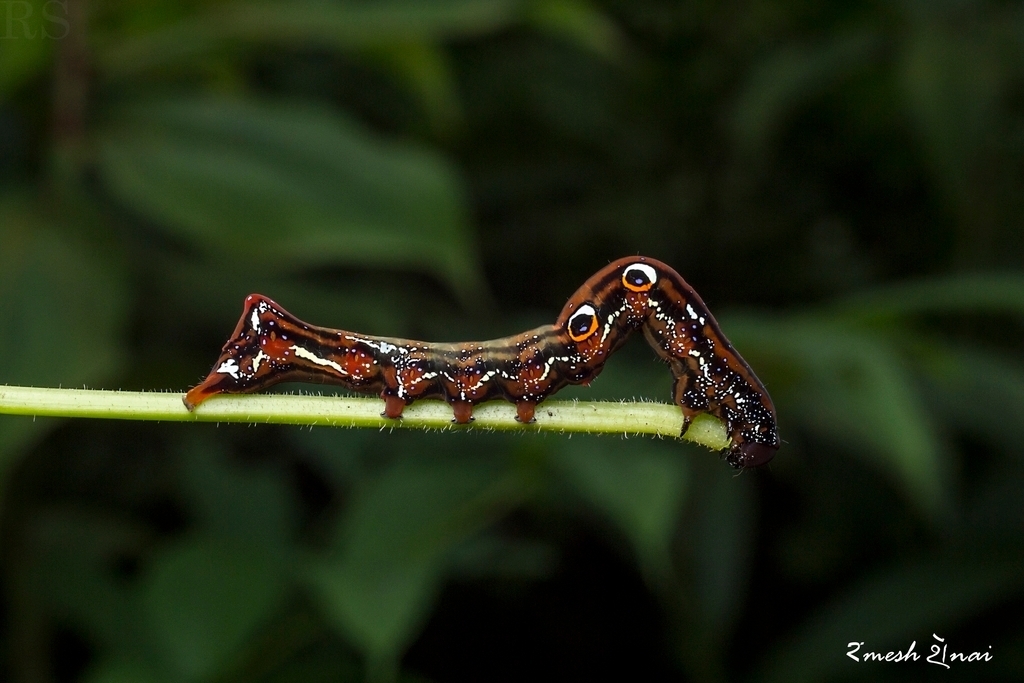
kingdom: Animalia
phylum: Arthropoda
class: Insecta
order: Lepidoptera
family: Erebidae
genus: Eudocima
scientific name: Eudocima phalonia
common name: Wasp
